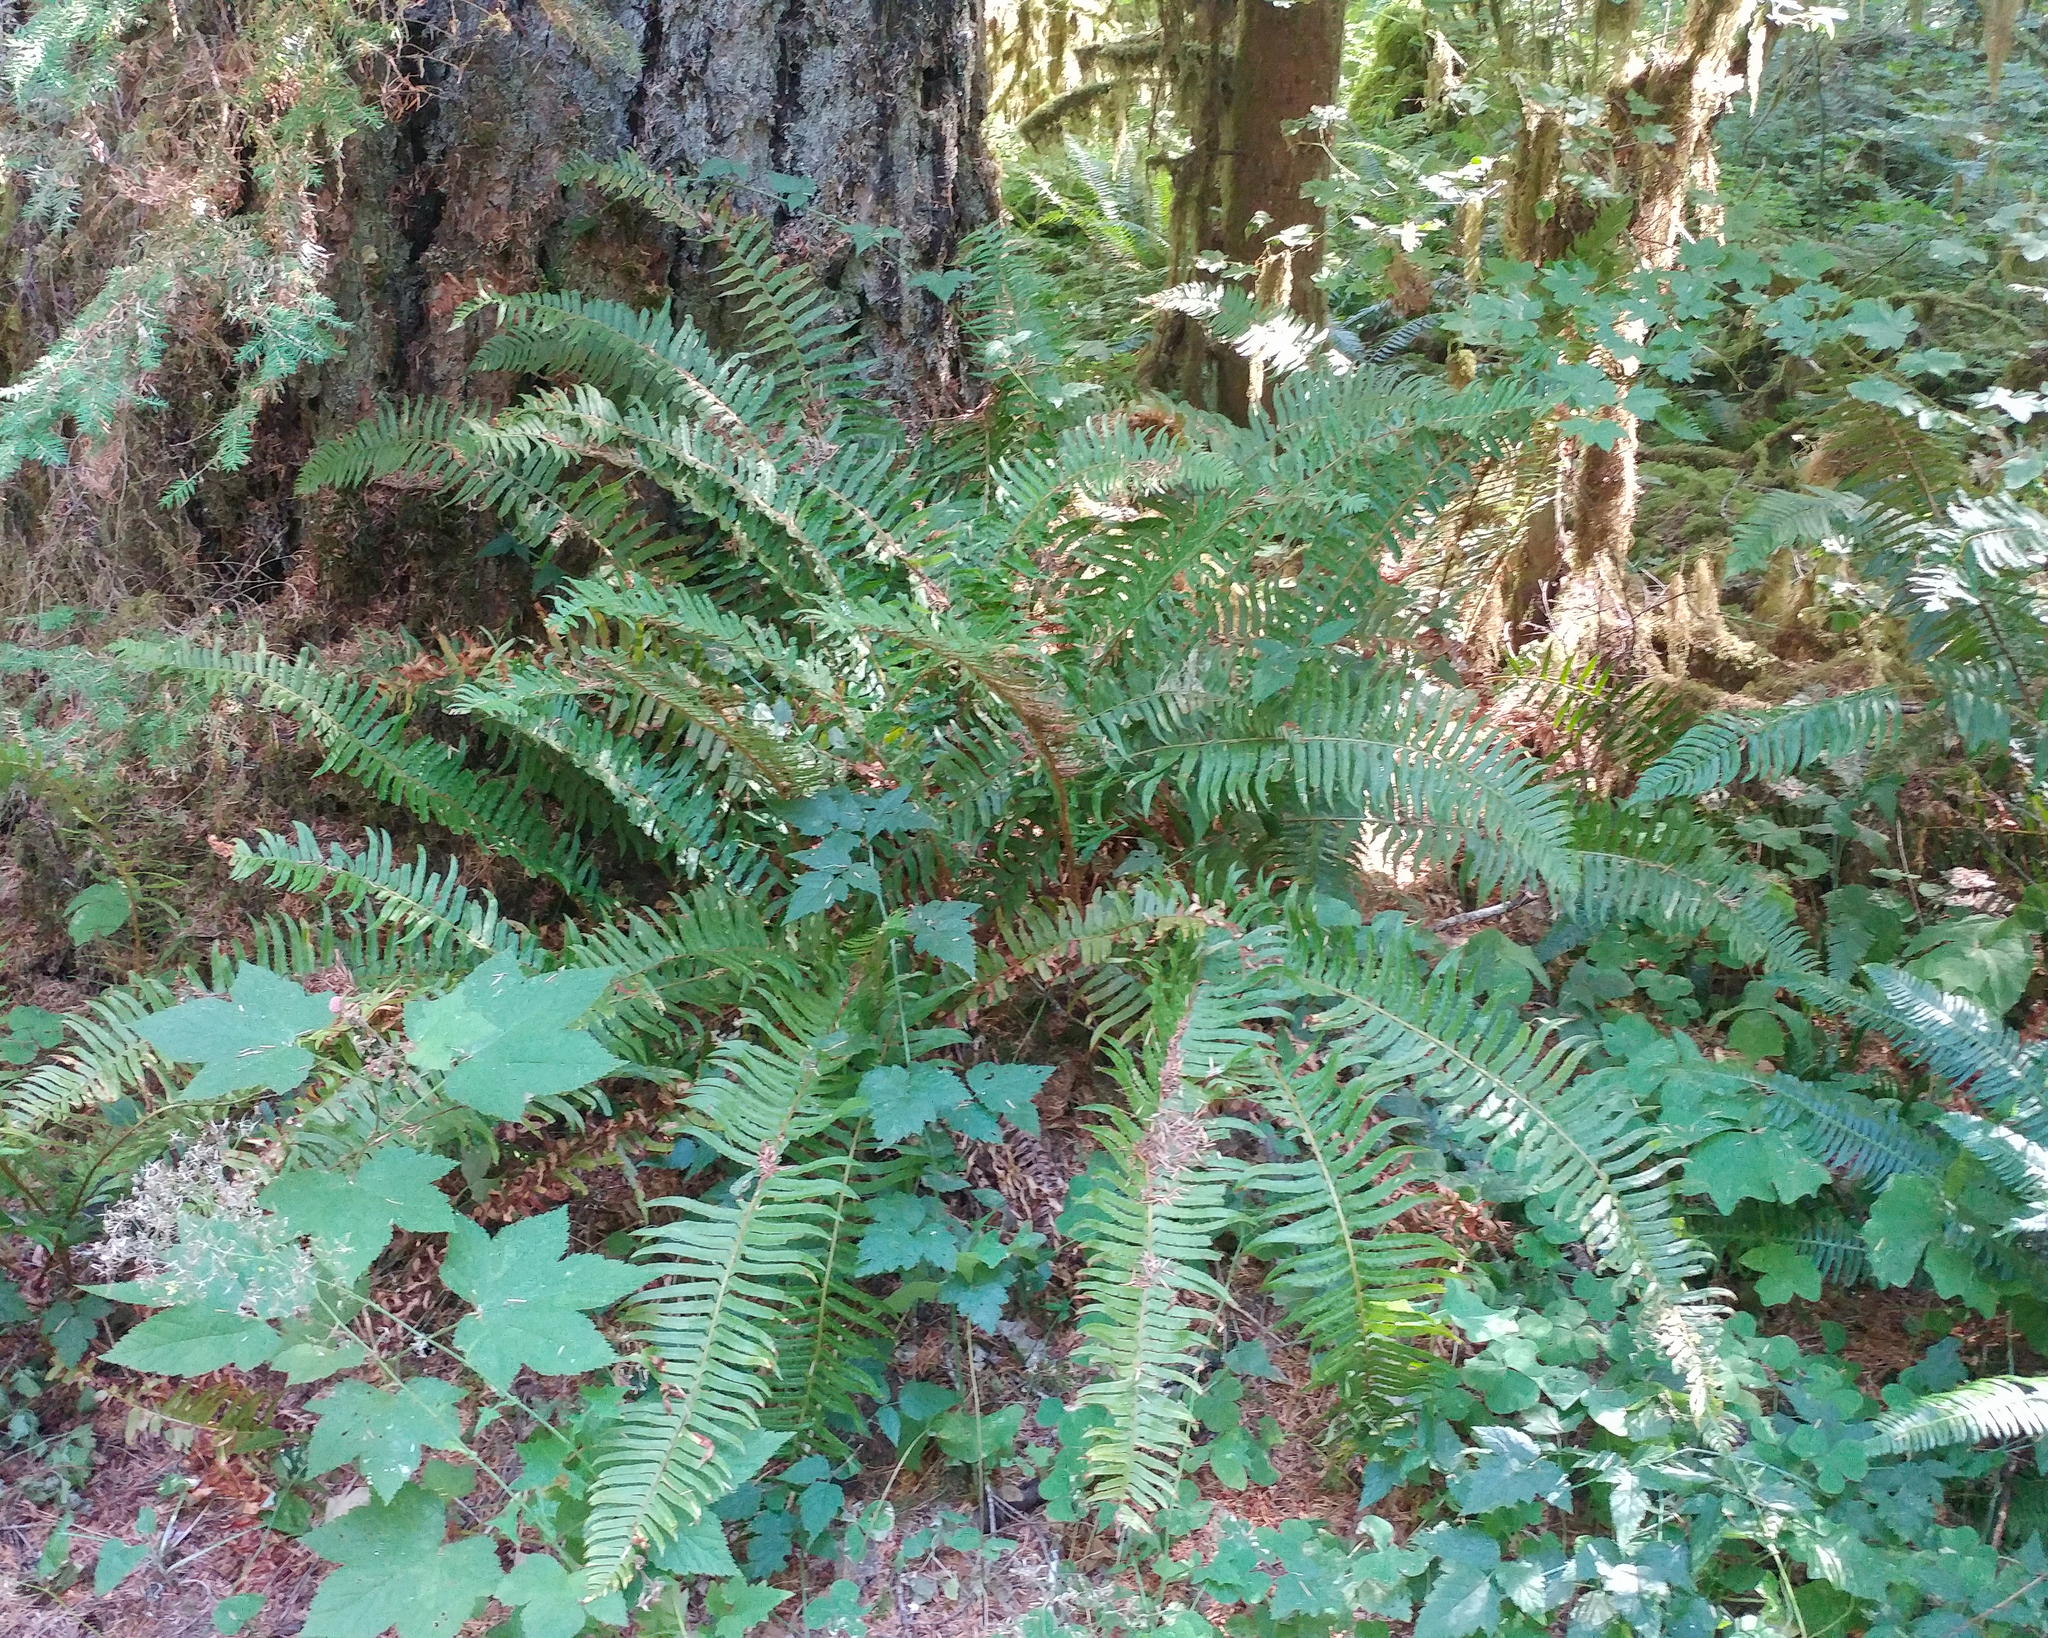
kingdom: Plantae
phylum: Tracheophyta
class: Polypodiopsida
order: Polypodiales
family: Dryopteridaceae
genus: Polystichum
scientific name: Polystichum munitum
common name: Western sword-fern
